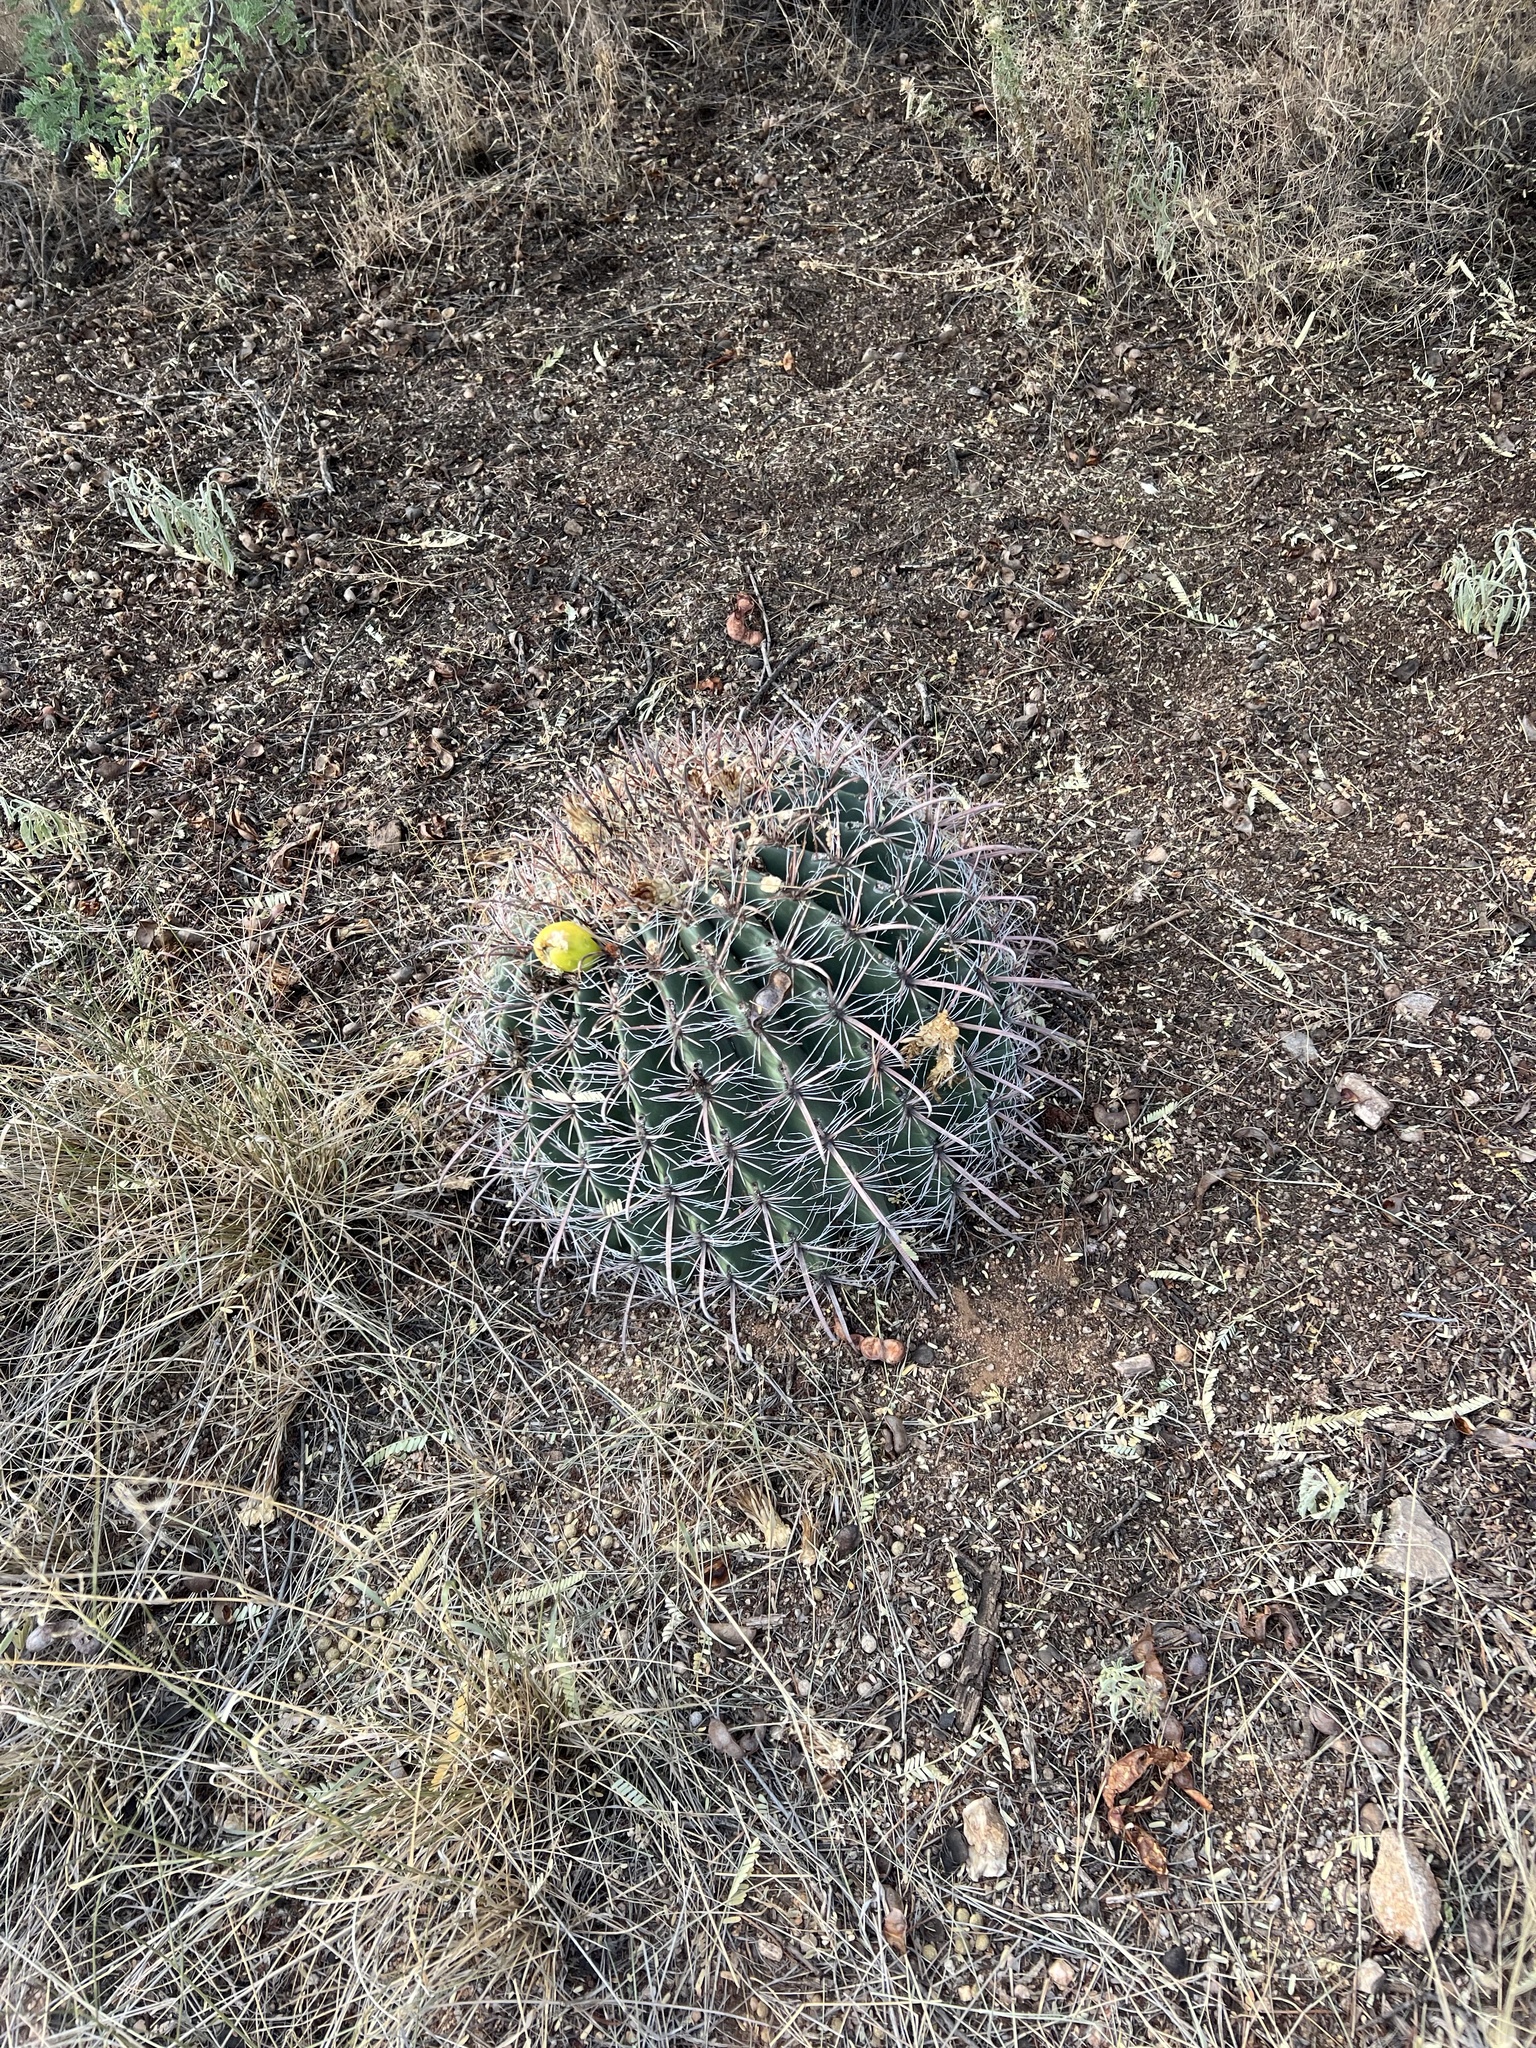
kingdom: Plantae
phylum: Tracheophyta
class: Magnoliopsida
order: Caryophyllales
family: Cactaceae
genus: Ferocactus
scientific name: Ferocactus wislizeni
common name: Candy barrel cactus
